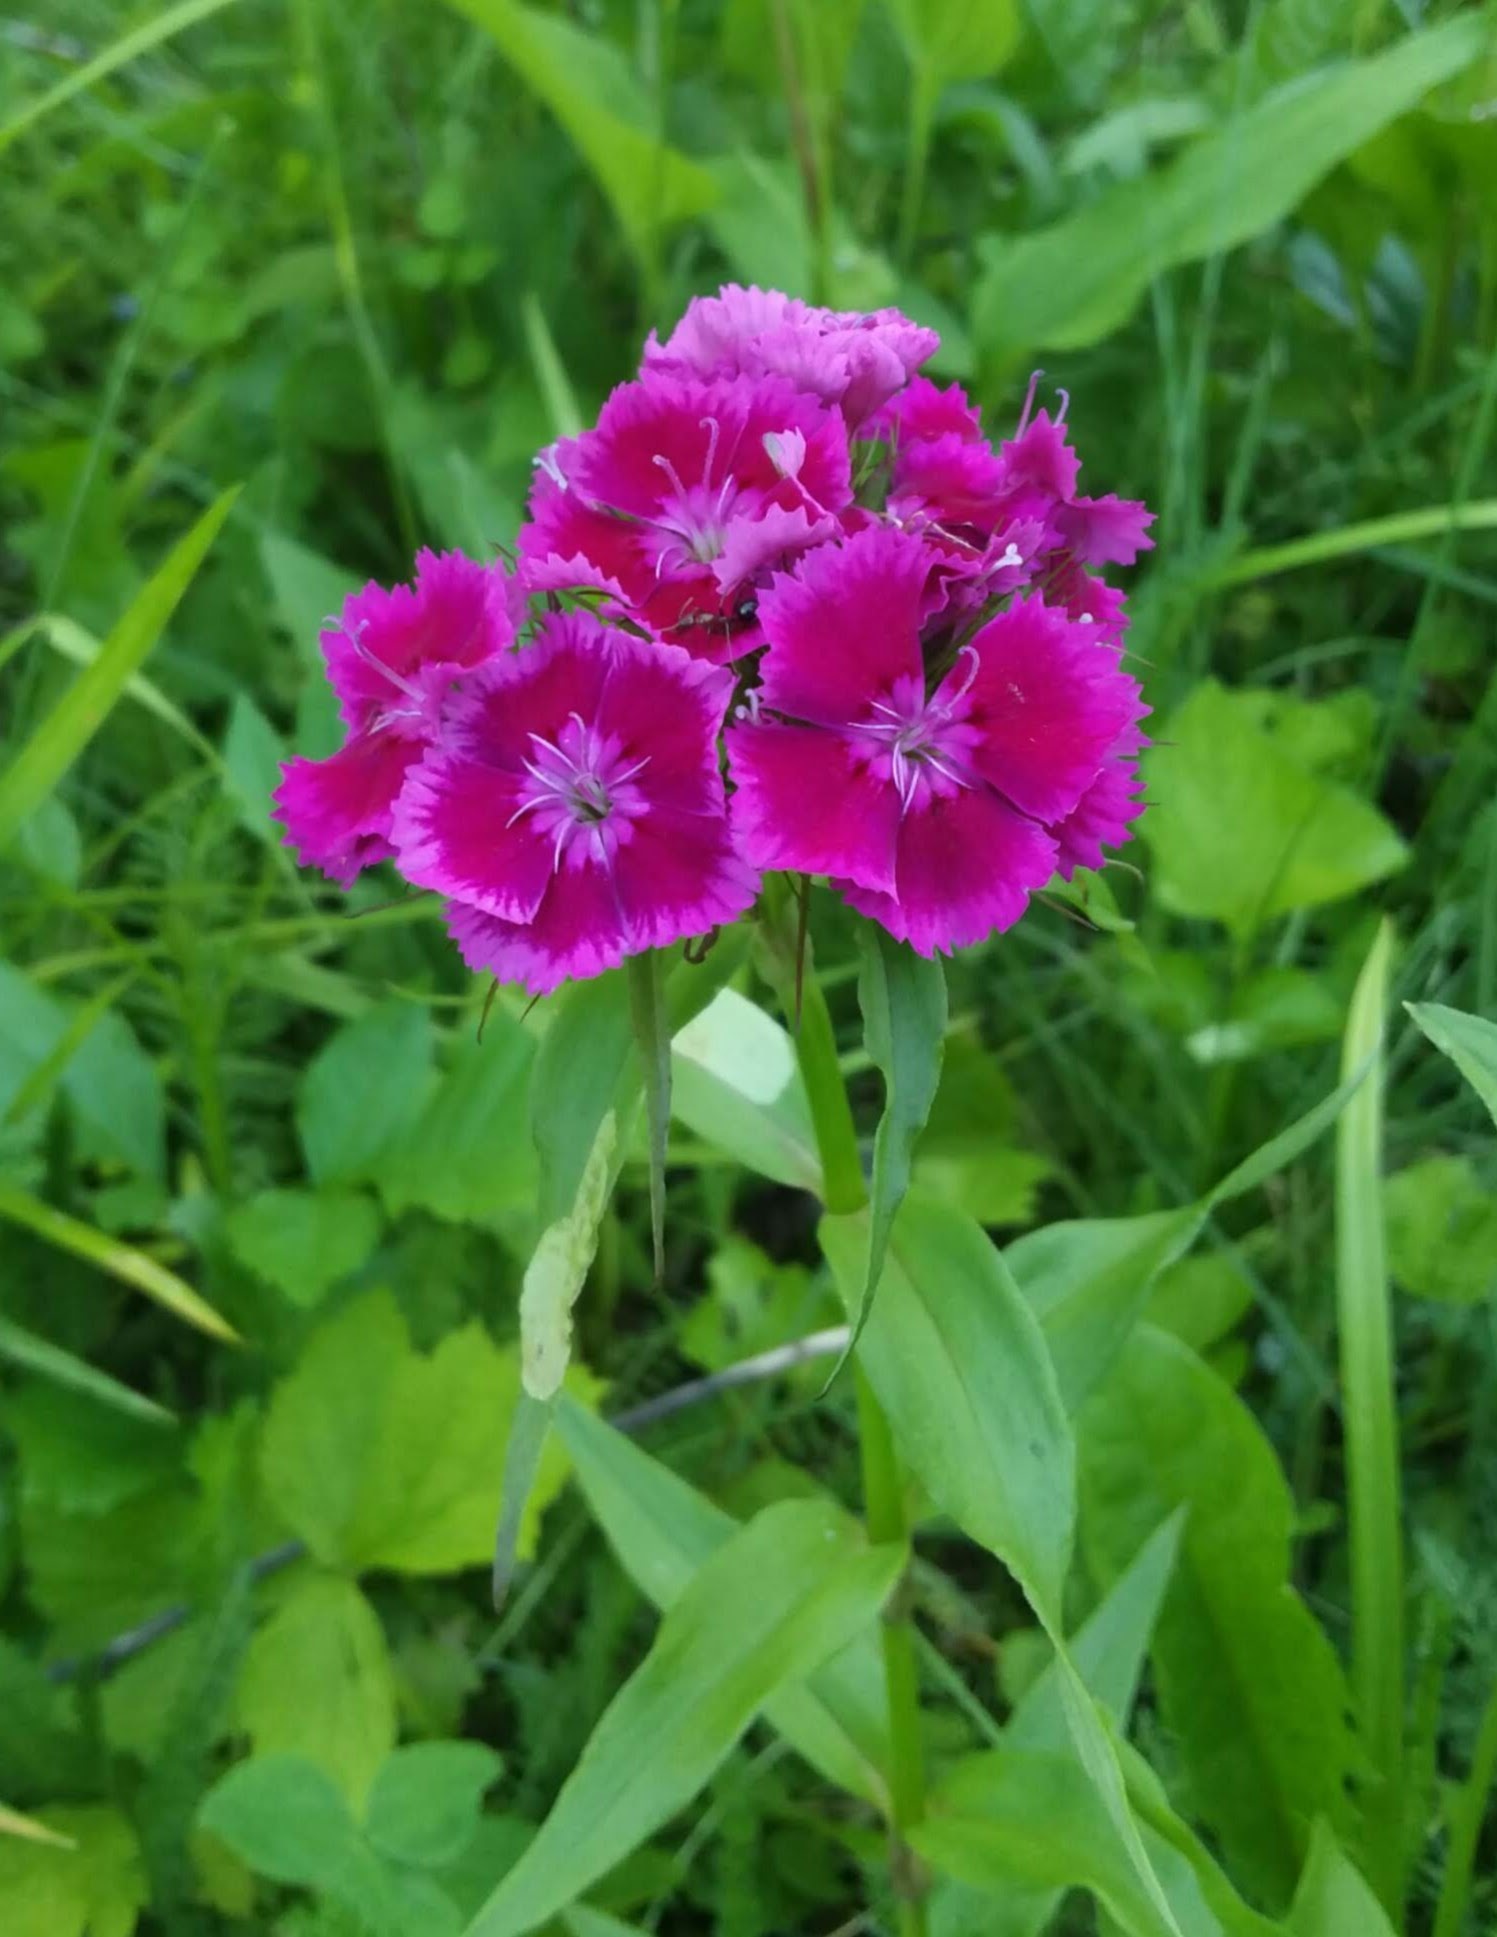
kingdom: Plantae
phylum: Tracheophyta
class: Magnoliopsida
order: Caryophyllales
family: Caryophyllaceae
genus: Dianthus
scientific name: Dianthus barbatus
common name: Sweet-william
